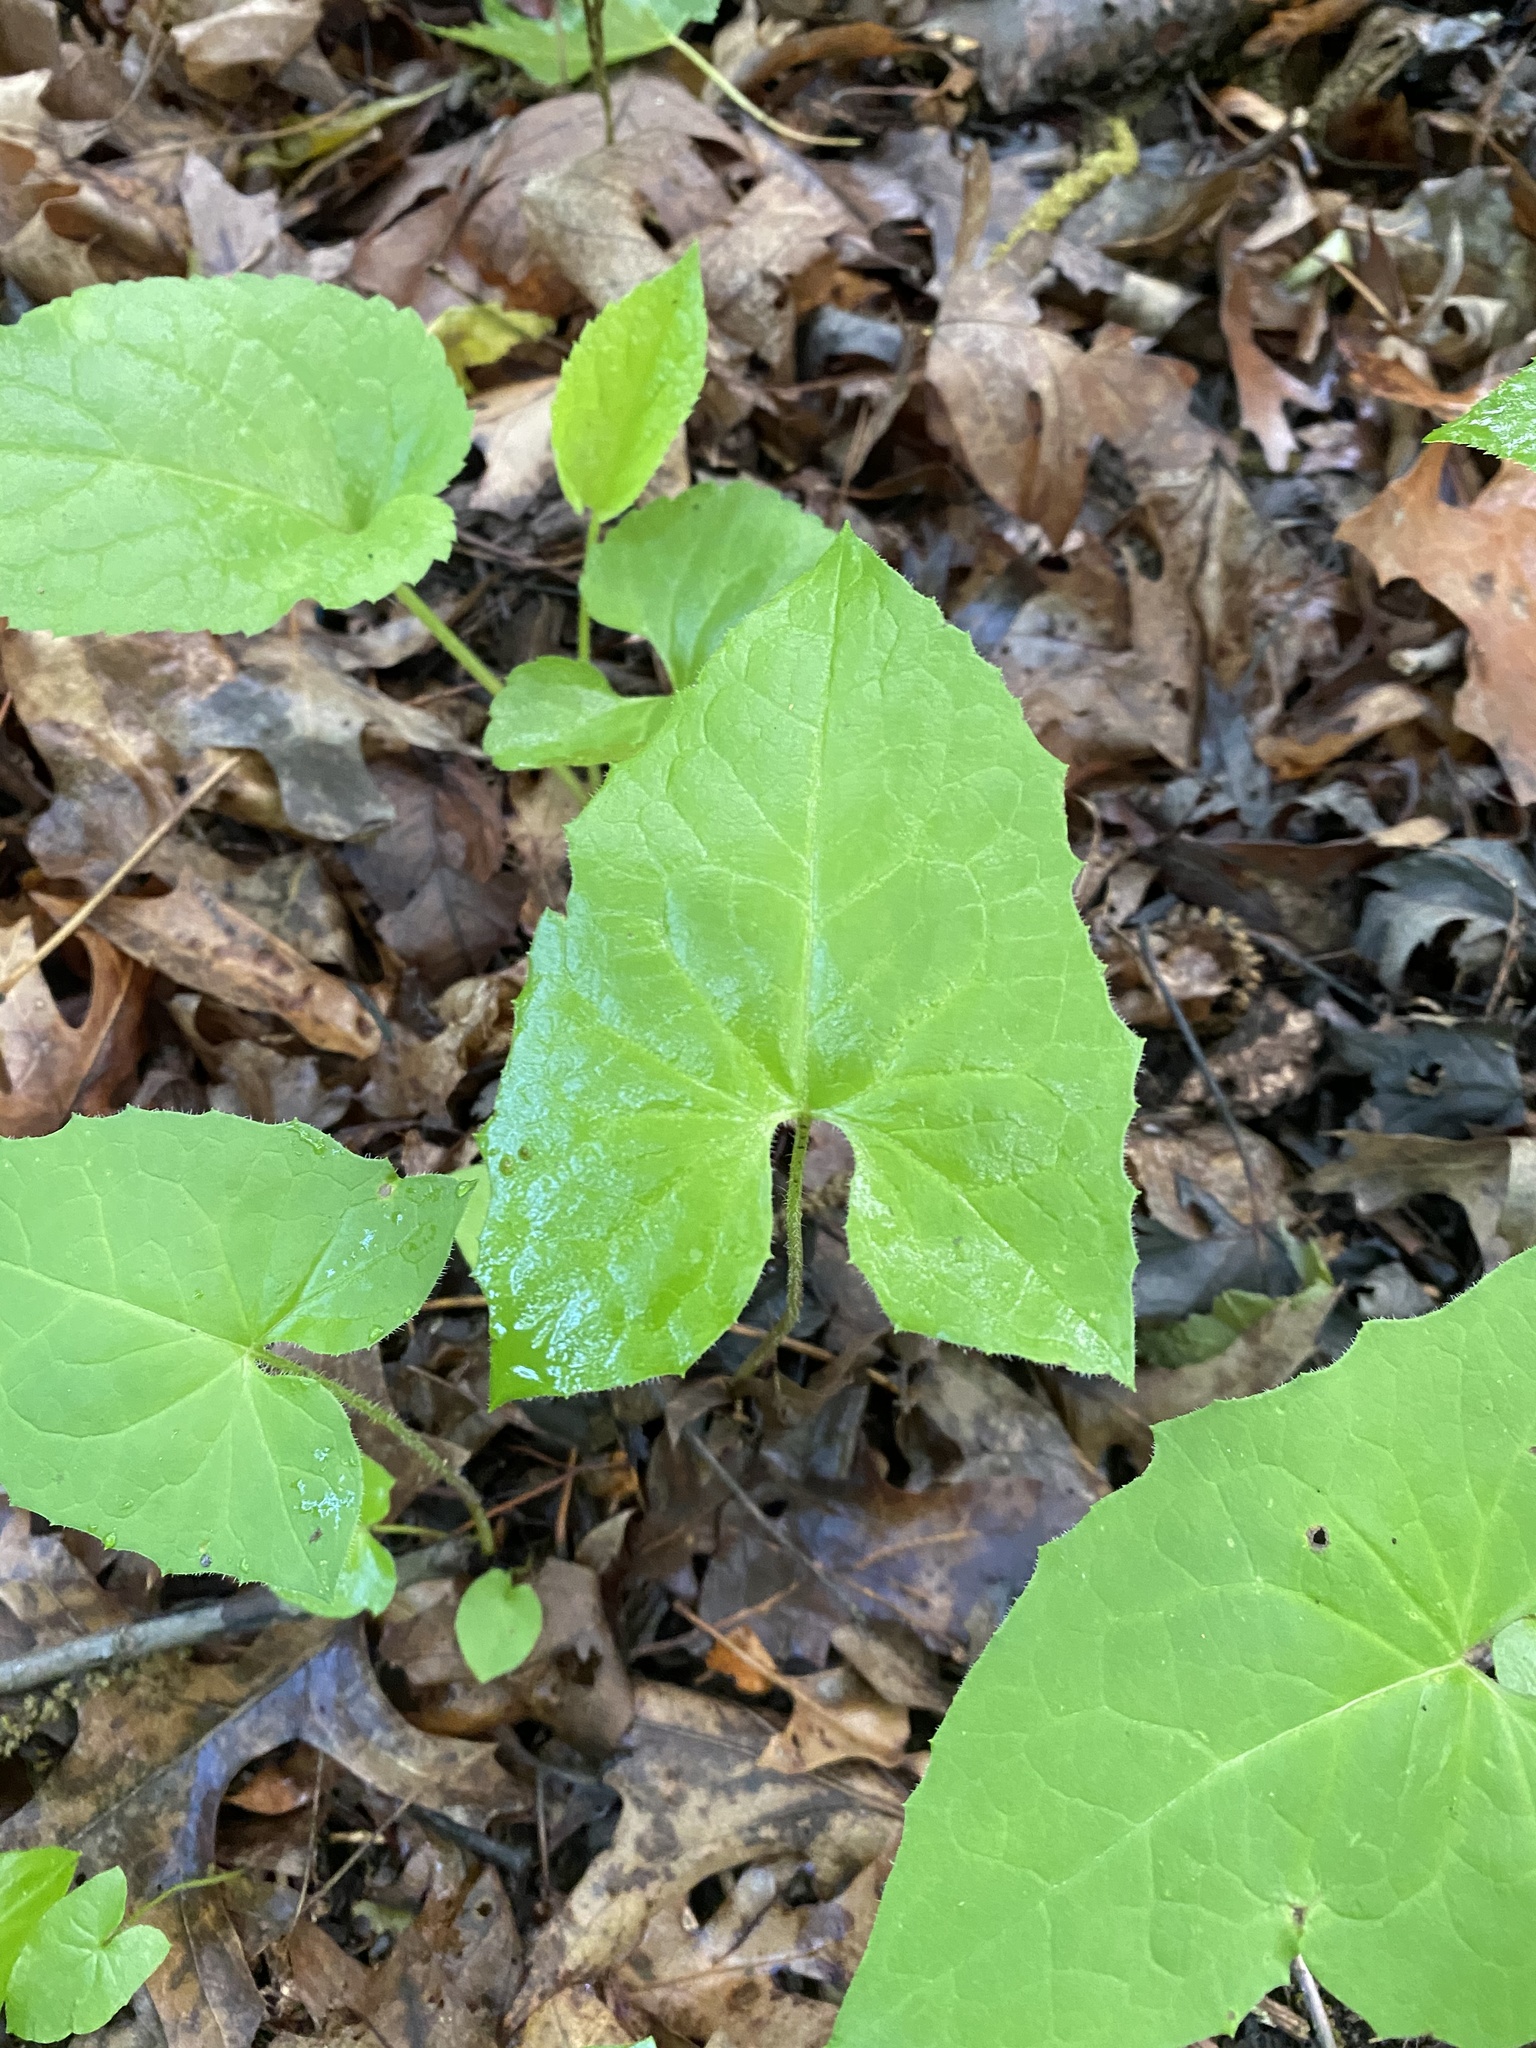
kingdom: Plantae
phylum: Tracheophyta
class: Magnoliopsida
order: Asterales
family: Asteraceae
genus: Nabalus
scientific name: Nabalus albus
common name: White rattlesnakeroot
